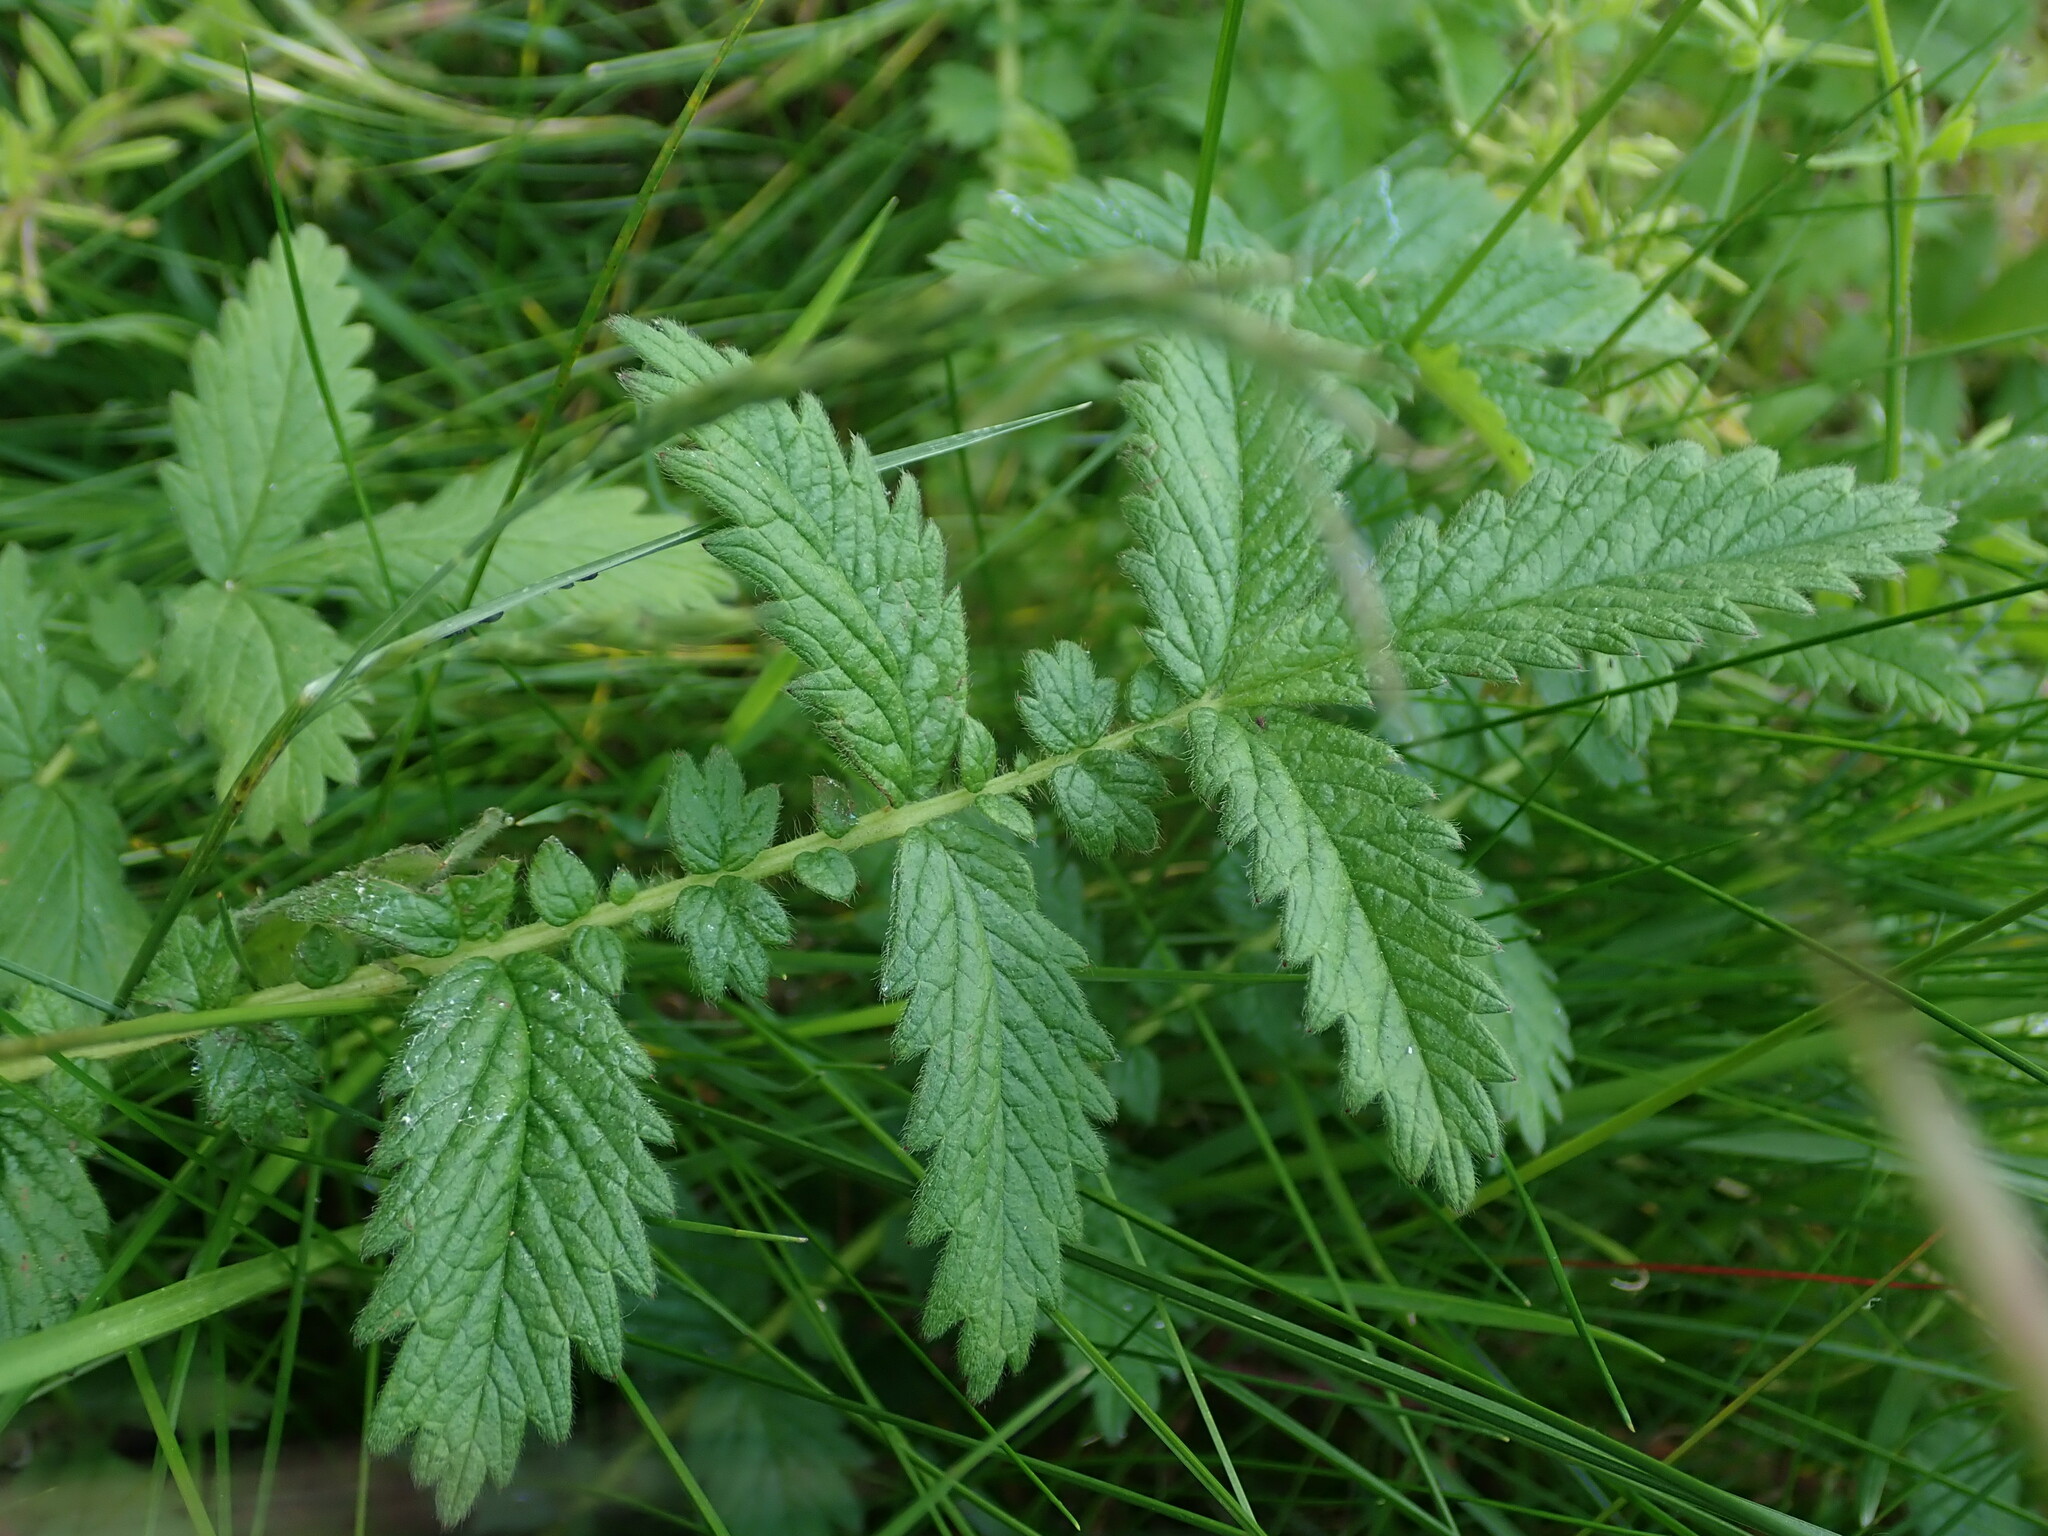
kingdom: Plantae
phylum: Tracheophyta
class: Magnoliopsida
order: Rosales
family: Rosaceae
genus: Agrimonia
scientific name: Agrimonia eupatoria
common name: Agrimony
